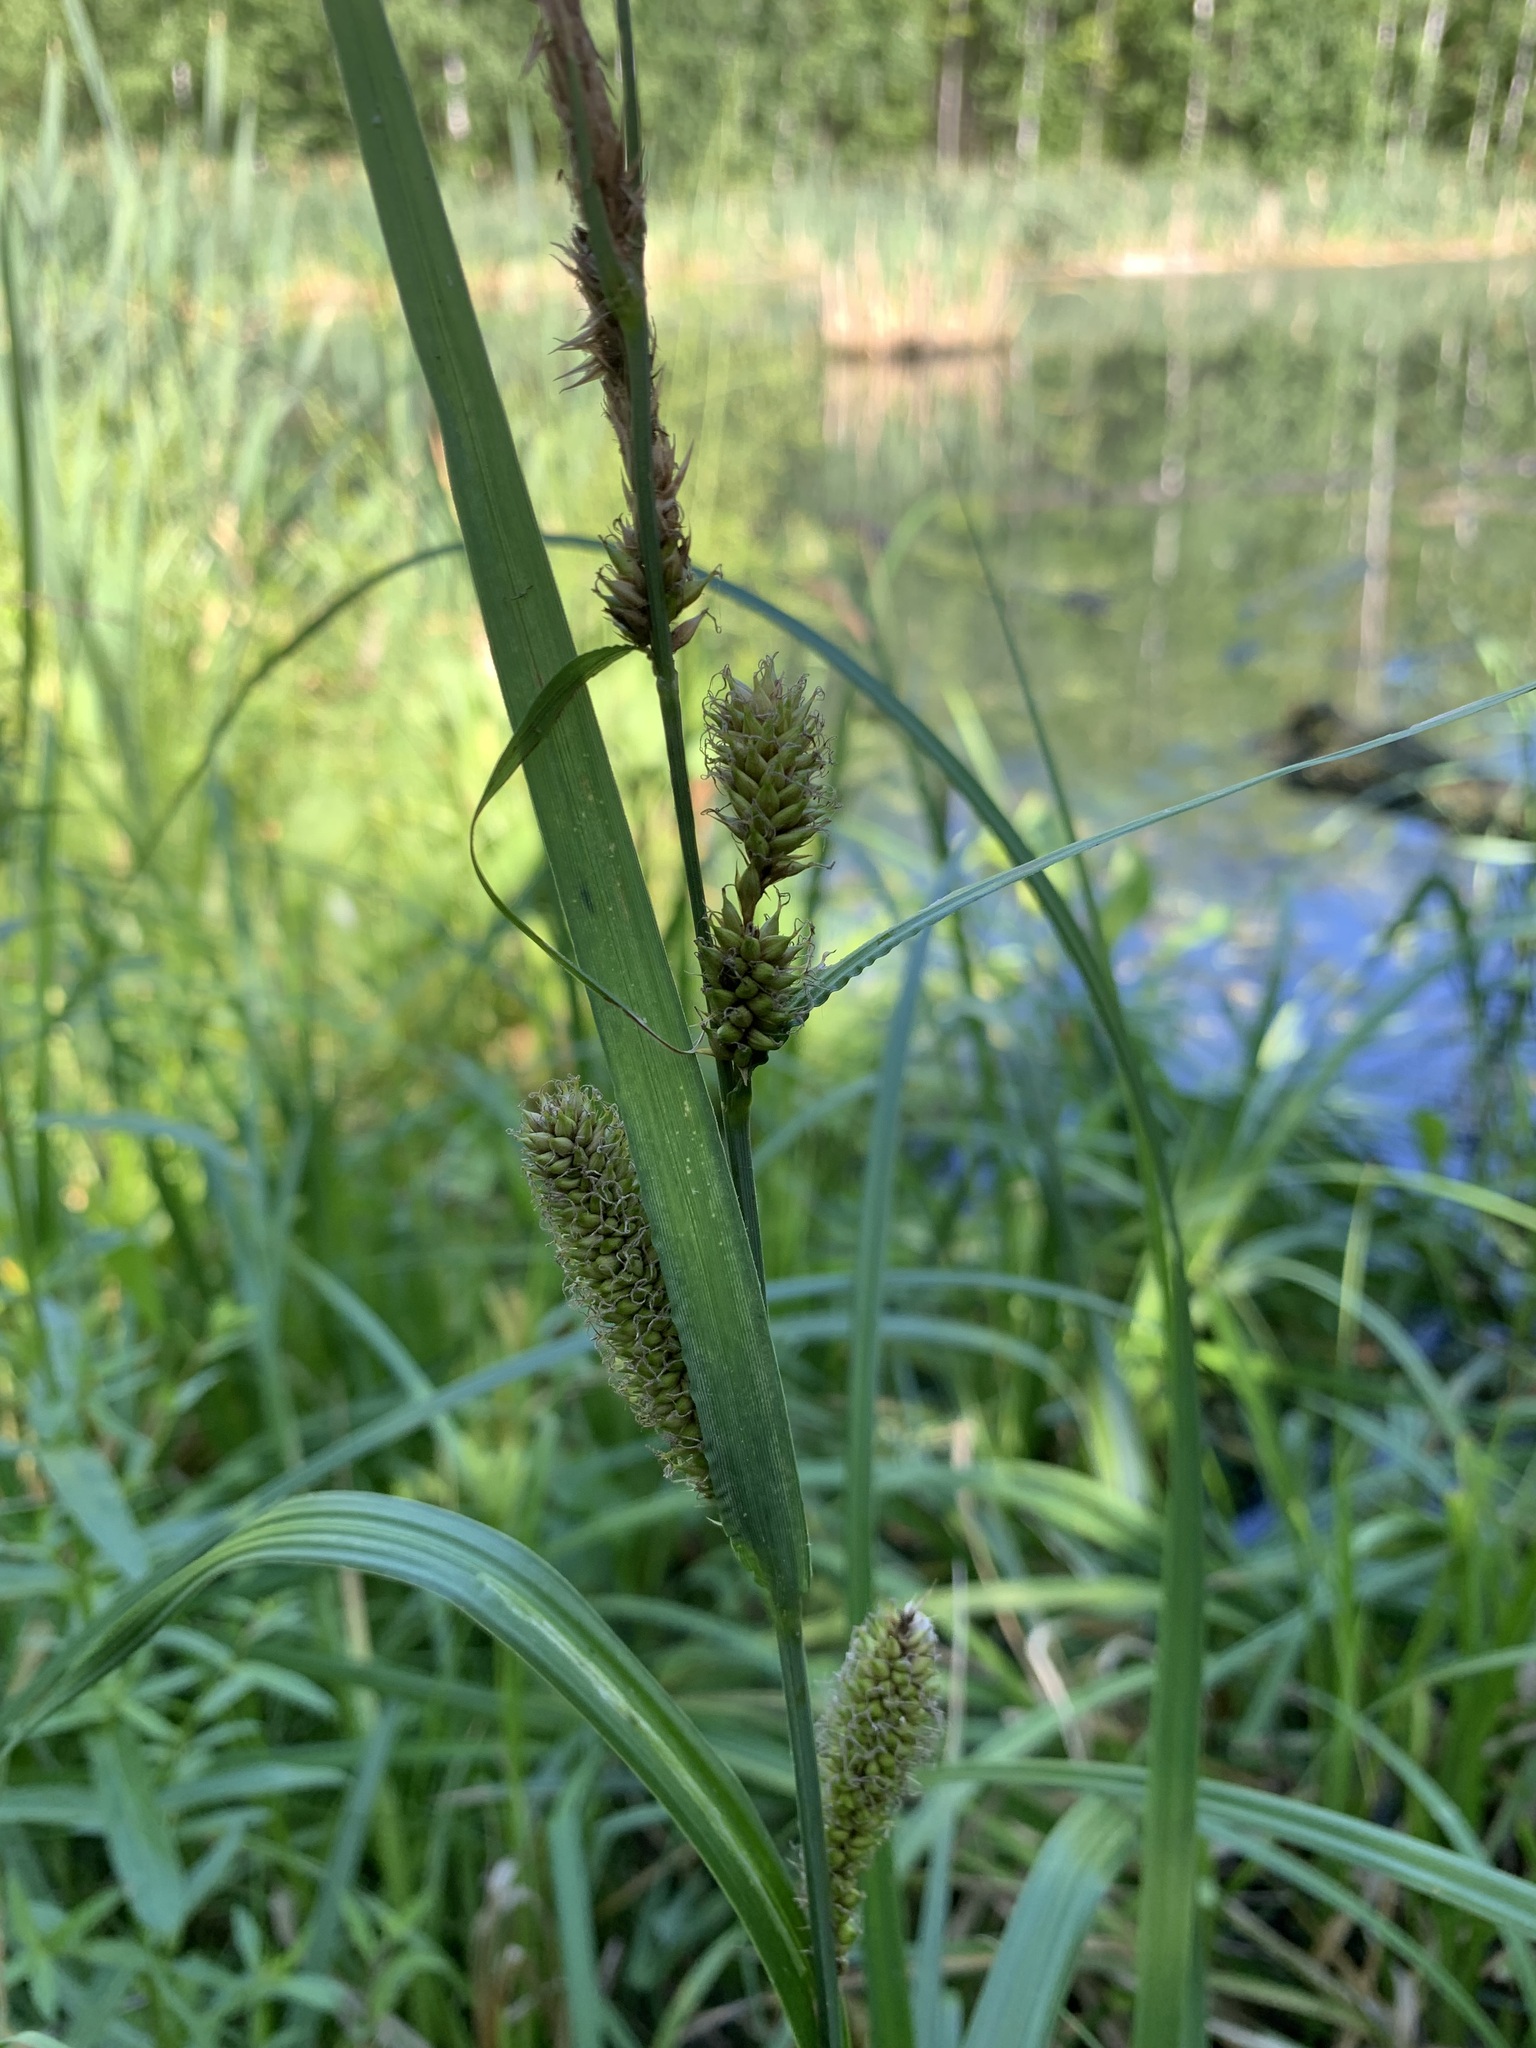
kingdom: Plantae
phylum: Tracheophyta
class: Liliopsida
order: Poales
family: Cyperaceae
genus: Carex
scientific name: Carex vesicaria
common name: Bladder-sedge
